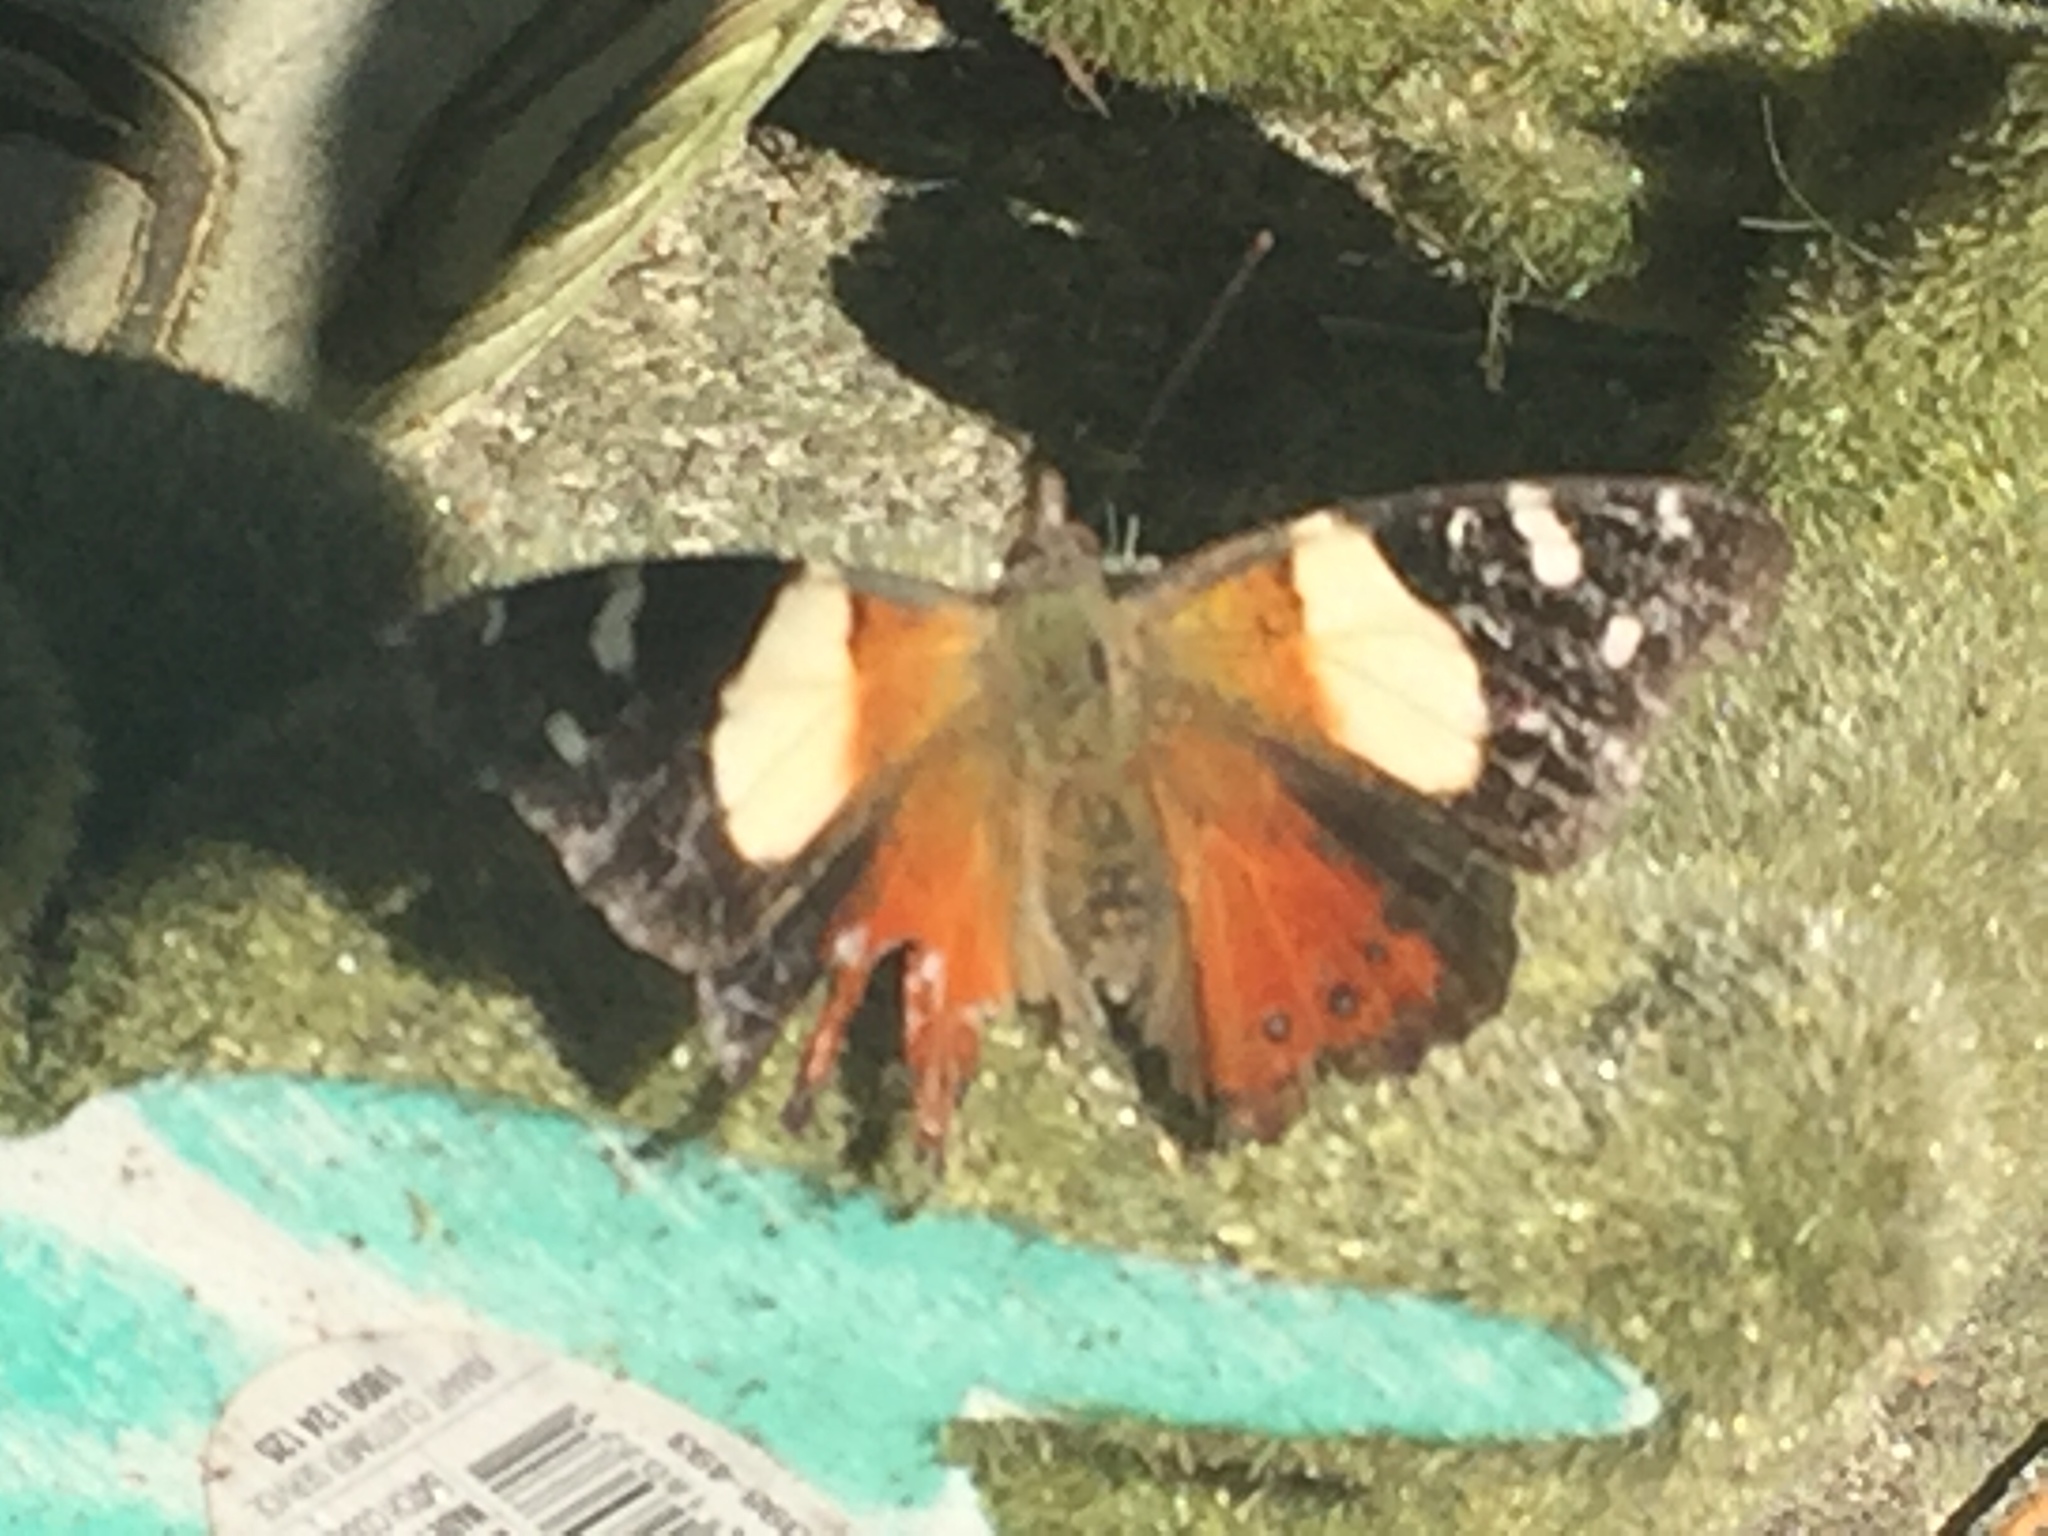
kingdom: Animalia
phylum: Arthropoda
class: Insecta
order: Lepidoptera
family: Nymphalidae
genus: Vanessa
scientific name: Vanessa itea
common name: Yellow admiral
